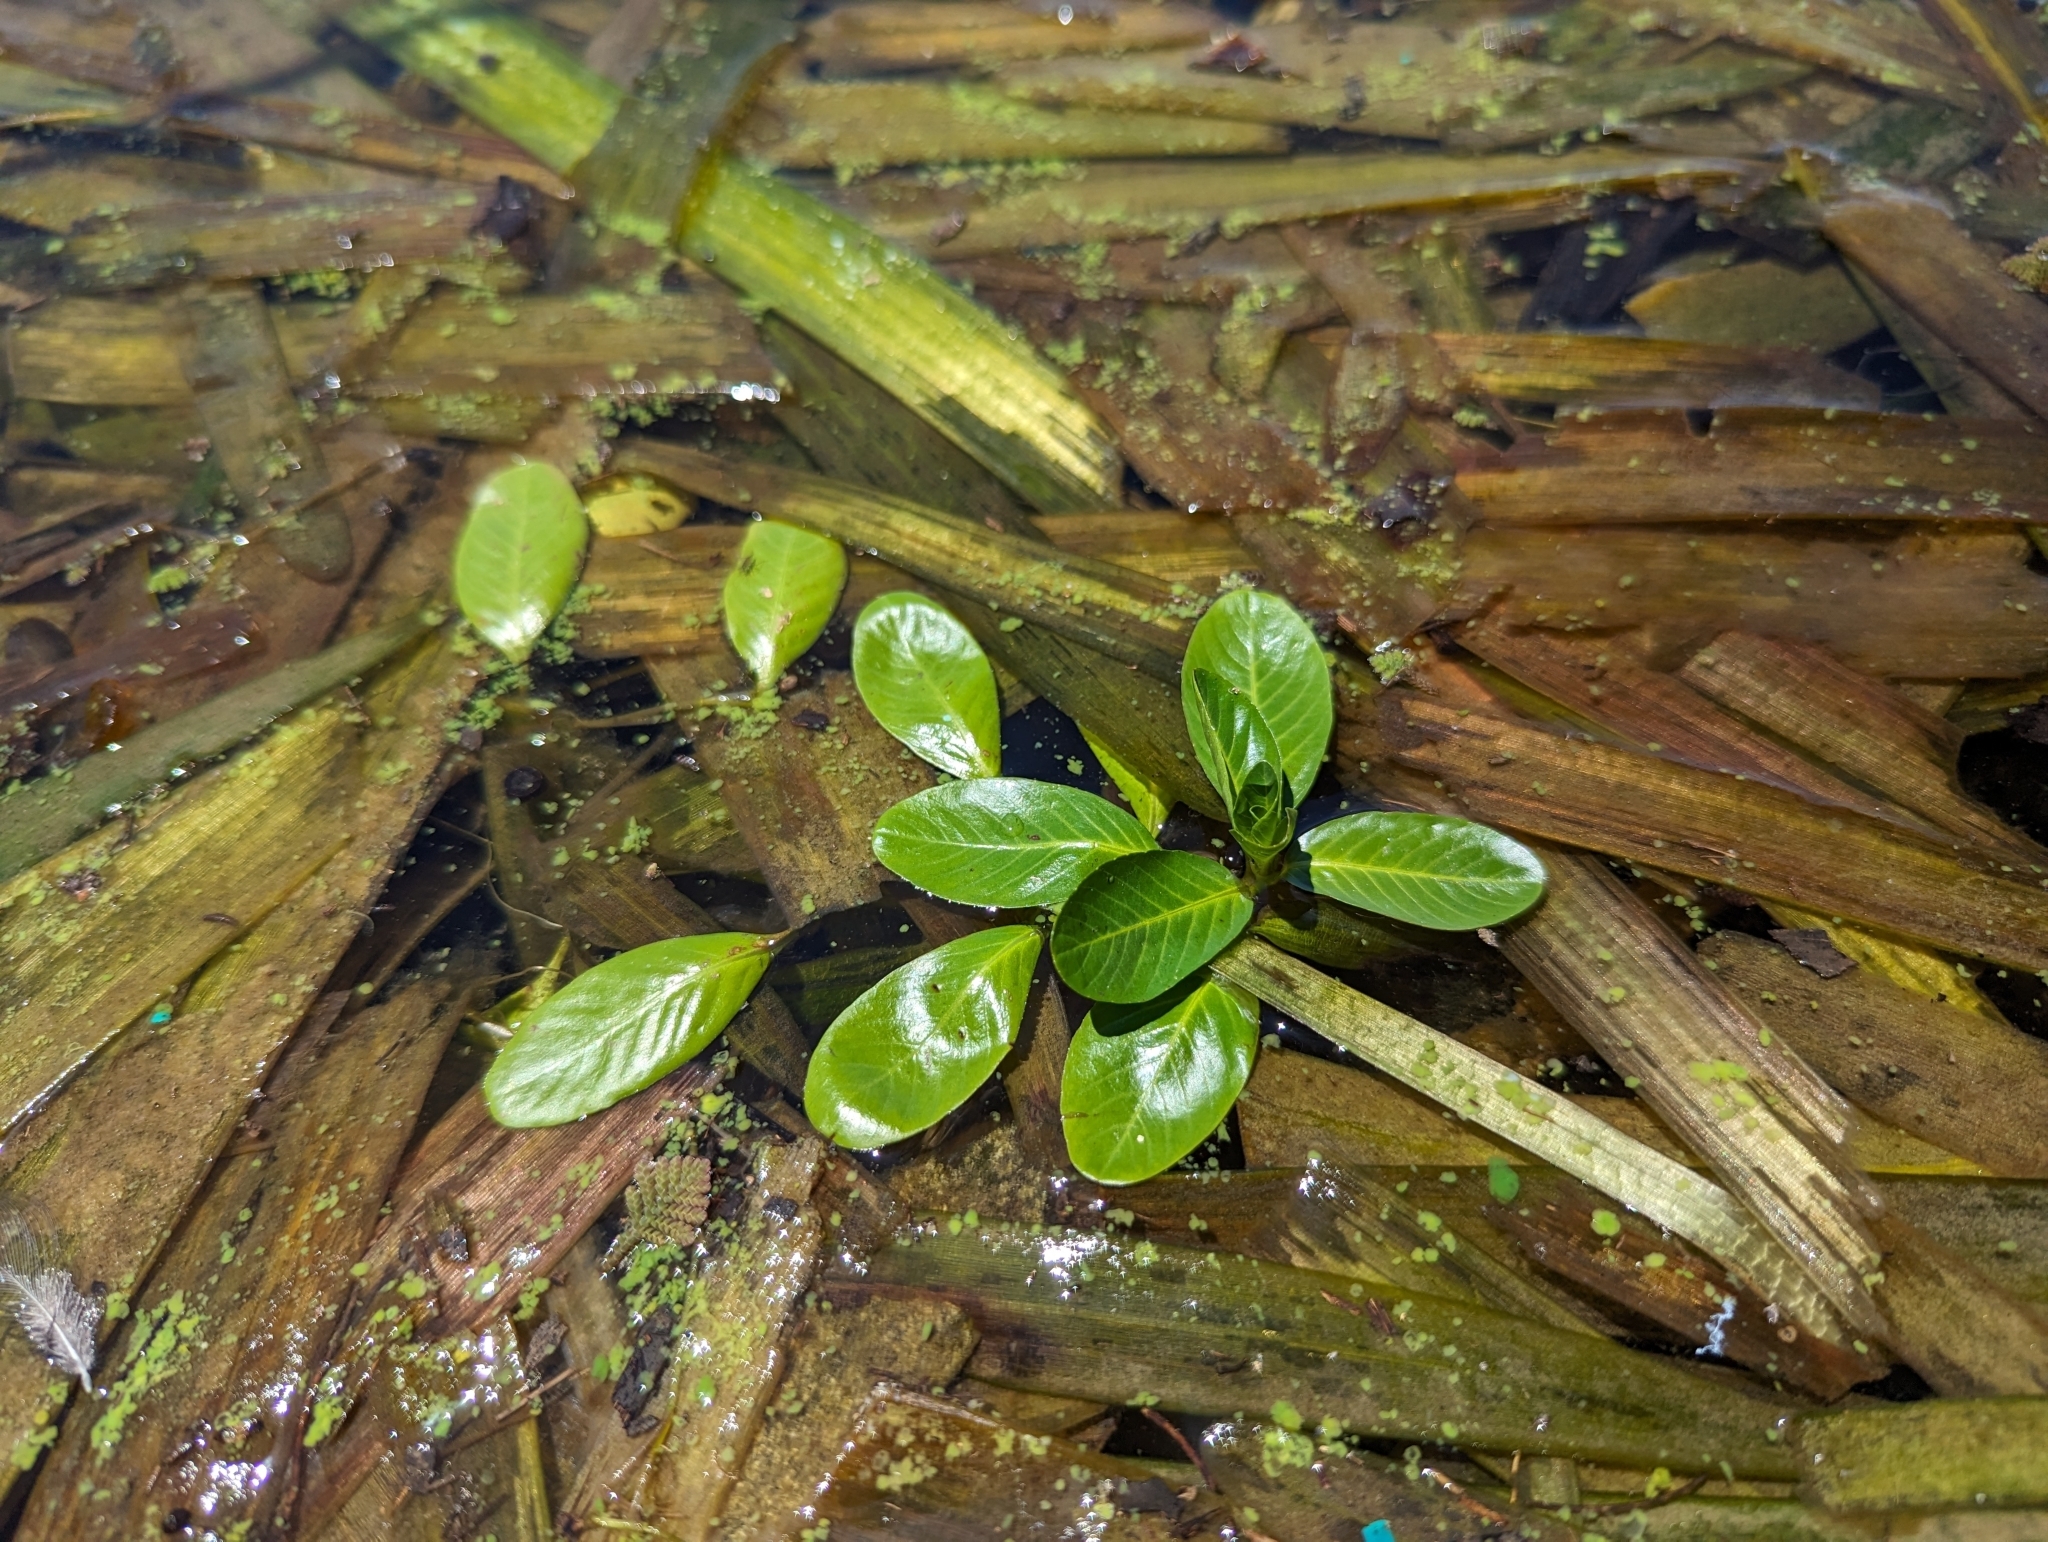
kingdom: Plantae
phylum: Tracheophyta
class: Magnoliopsida
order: Myrtales
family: Onagraceae
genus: Ludwigia
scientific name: Ludwigia peploides
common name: Floating primrose-willow
